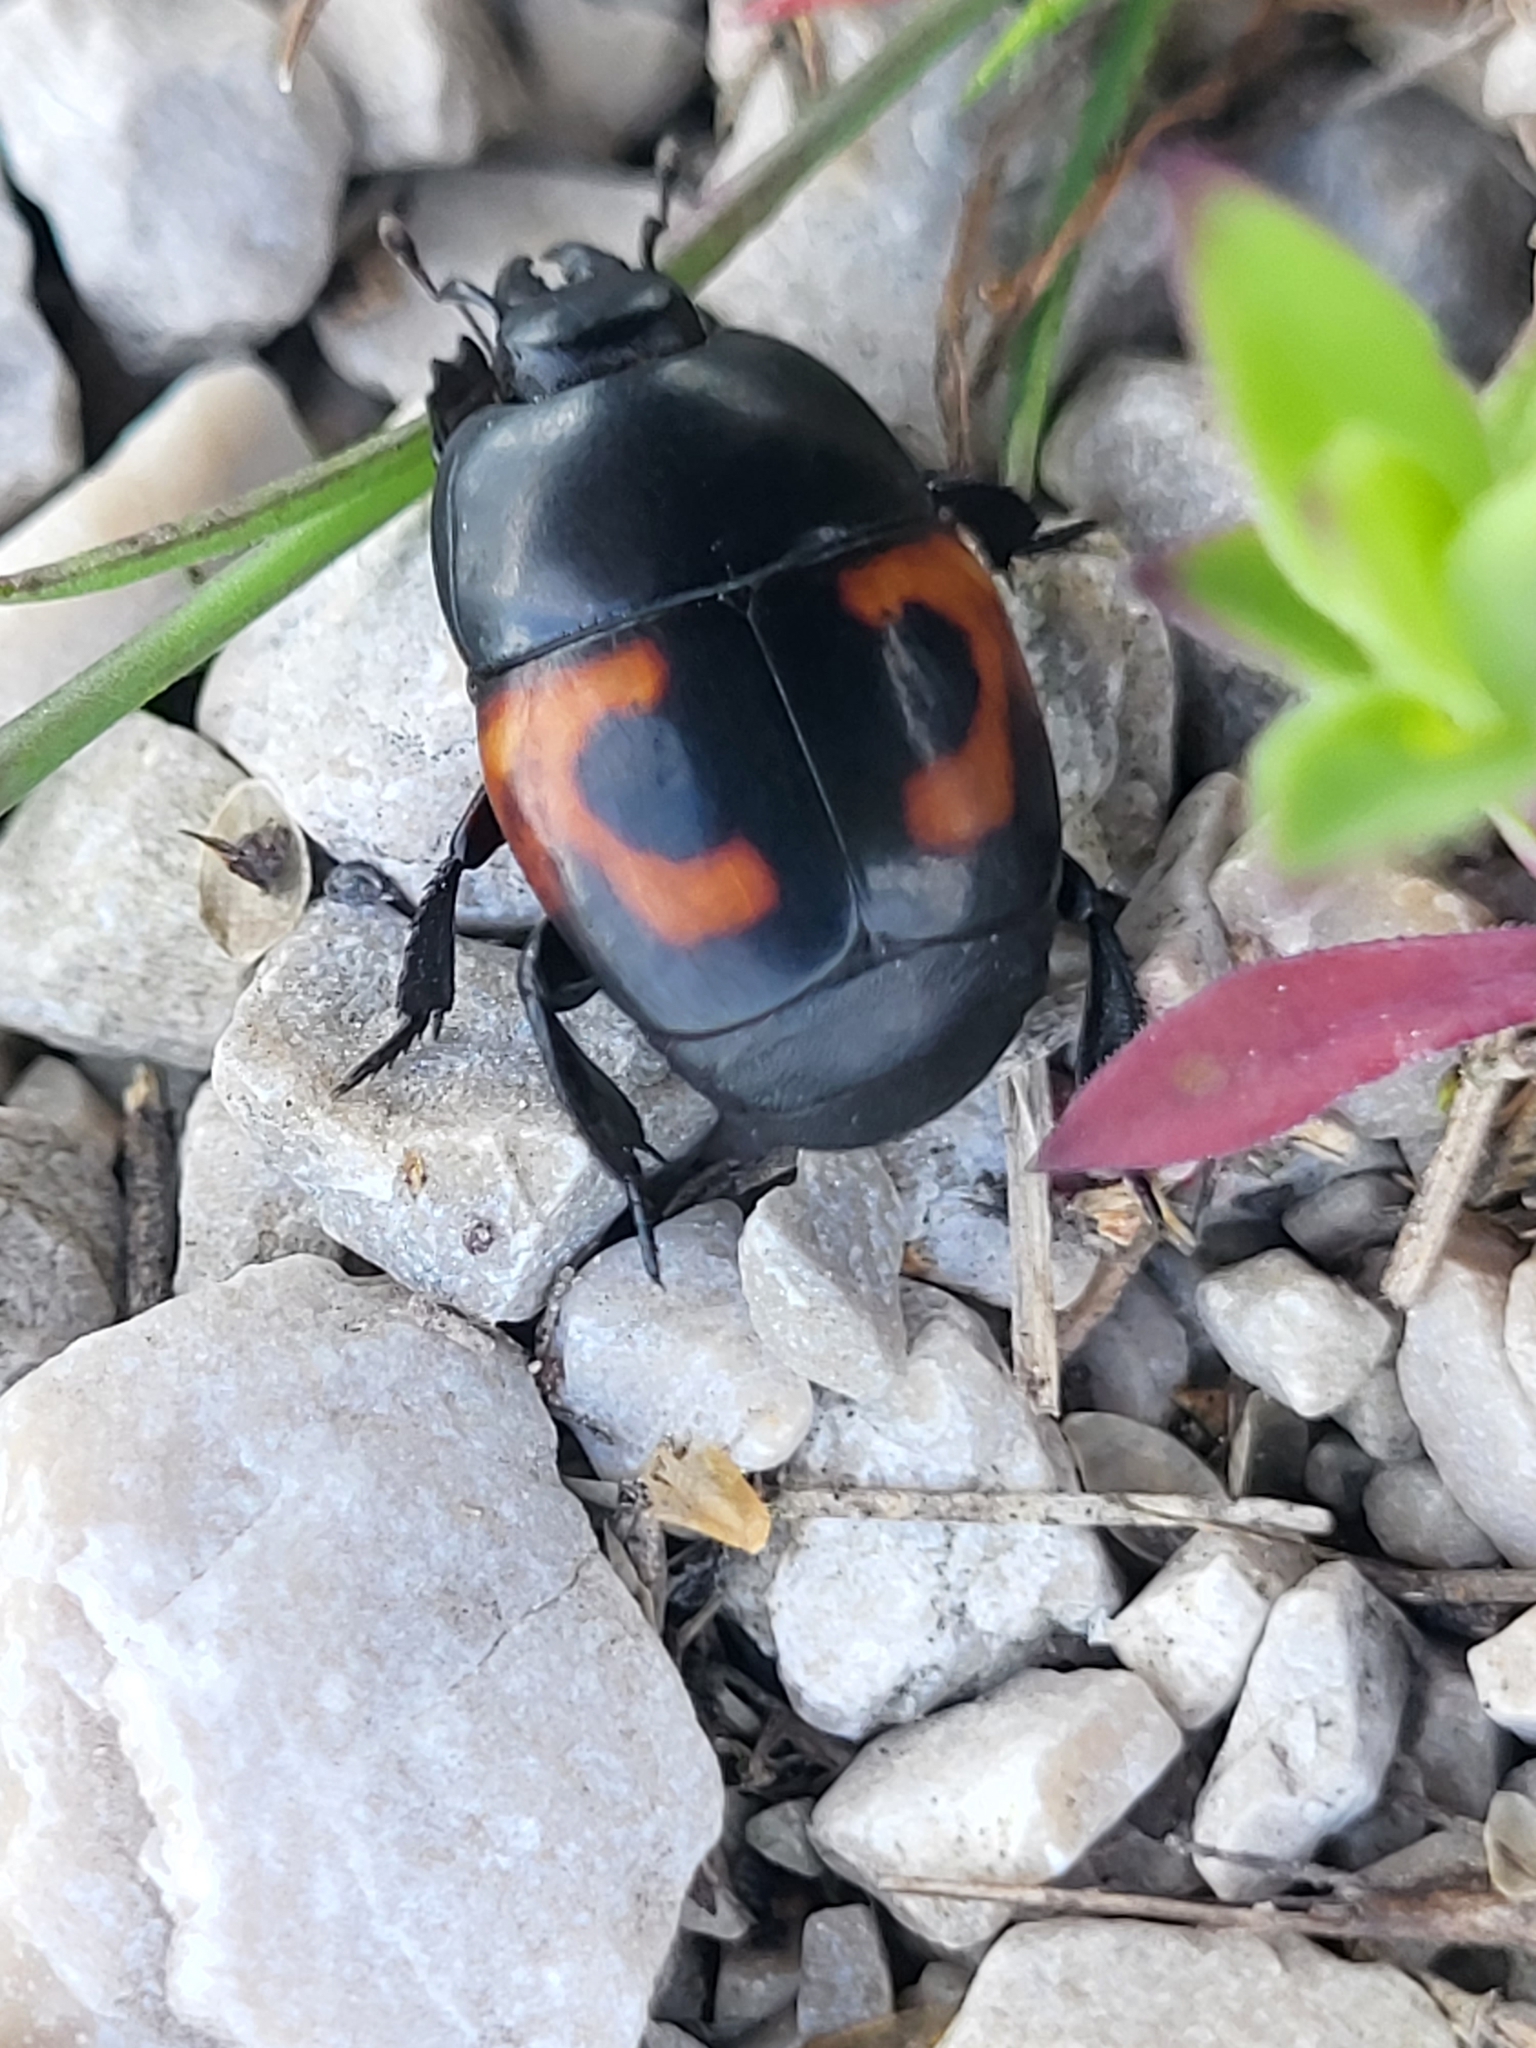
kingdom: Animalia
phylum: Arthropoda
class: Insecta
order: Coleoptera
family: Histeridae
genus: Hister
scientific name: Hister quadrimaculatus
